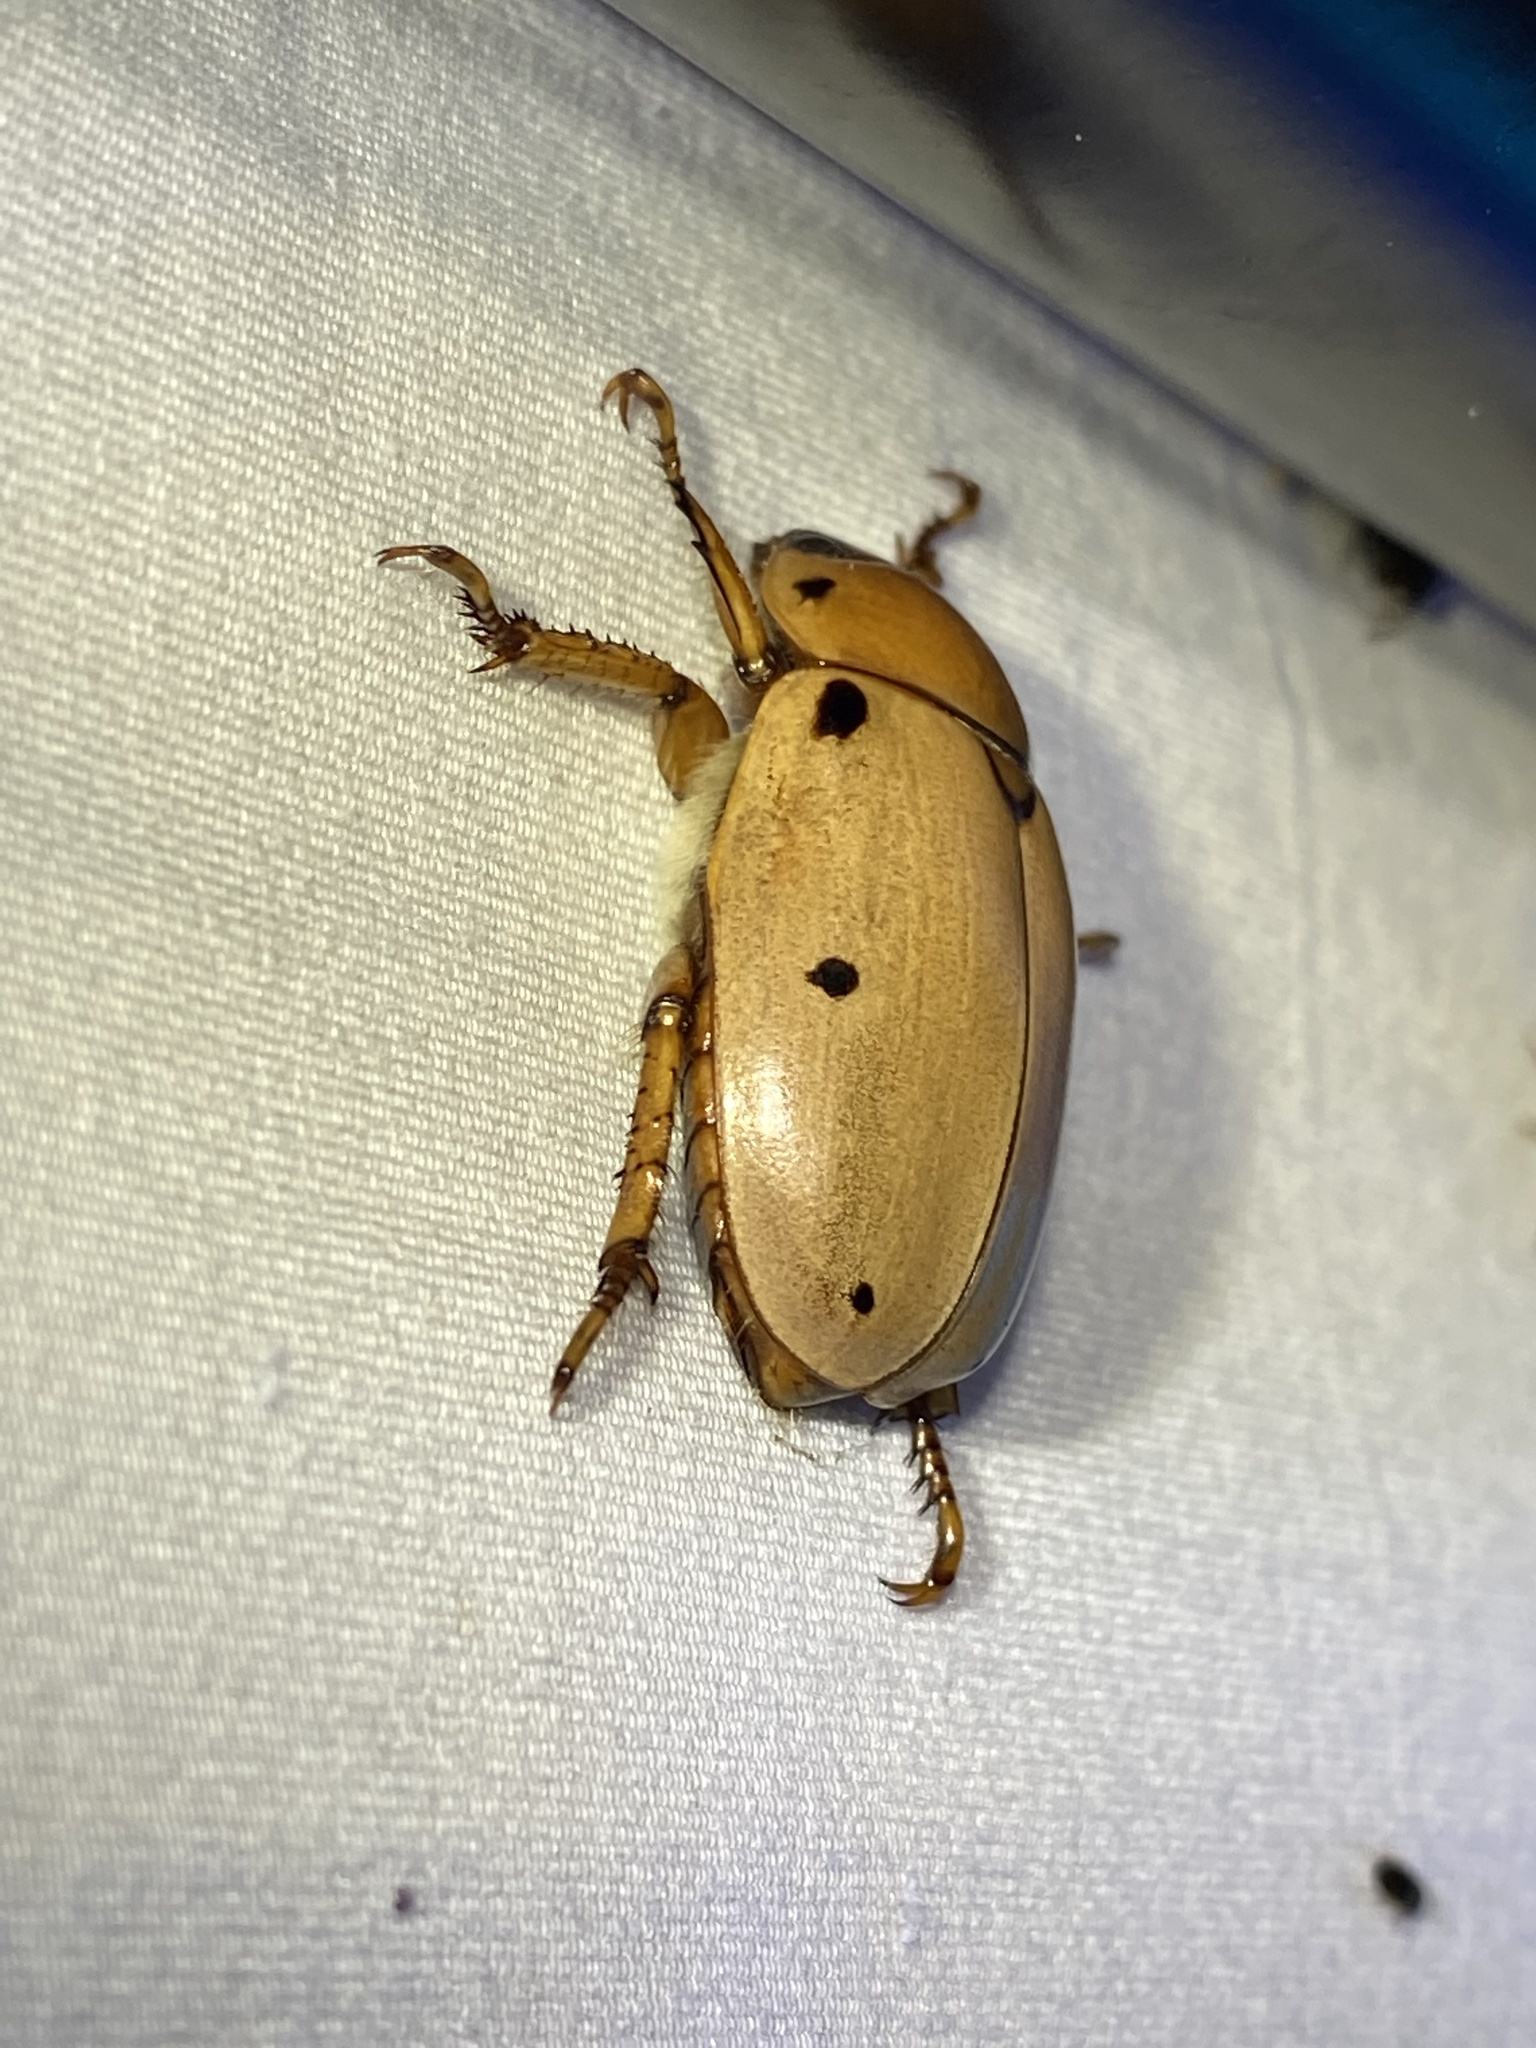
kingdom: Animalia
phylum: Arthropoda
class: Insecta
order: Coleoptera
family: Scarabaeidae
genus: Pelidnota
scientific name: Pelidnota punctata
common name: Grapevine beetle
